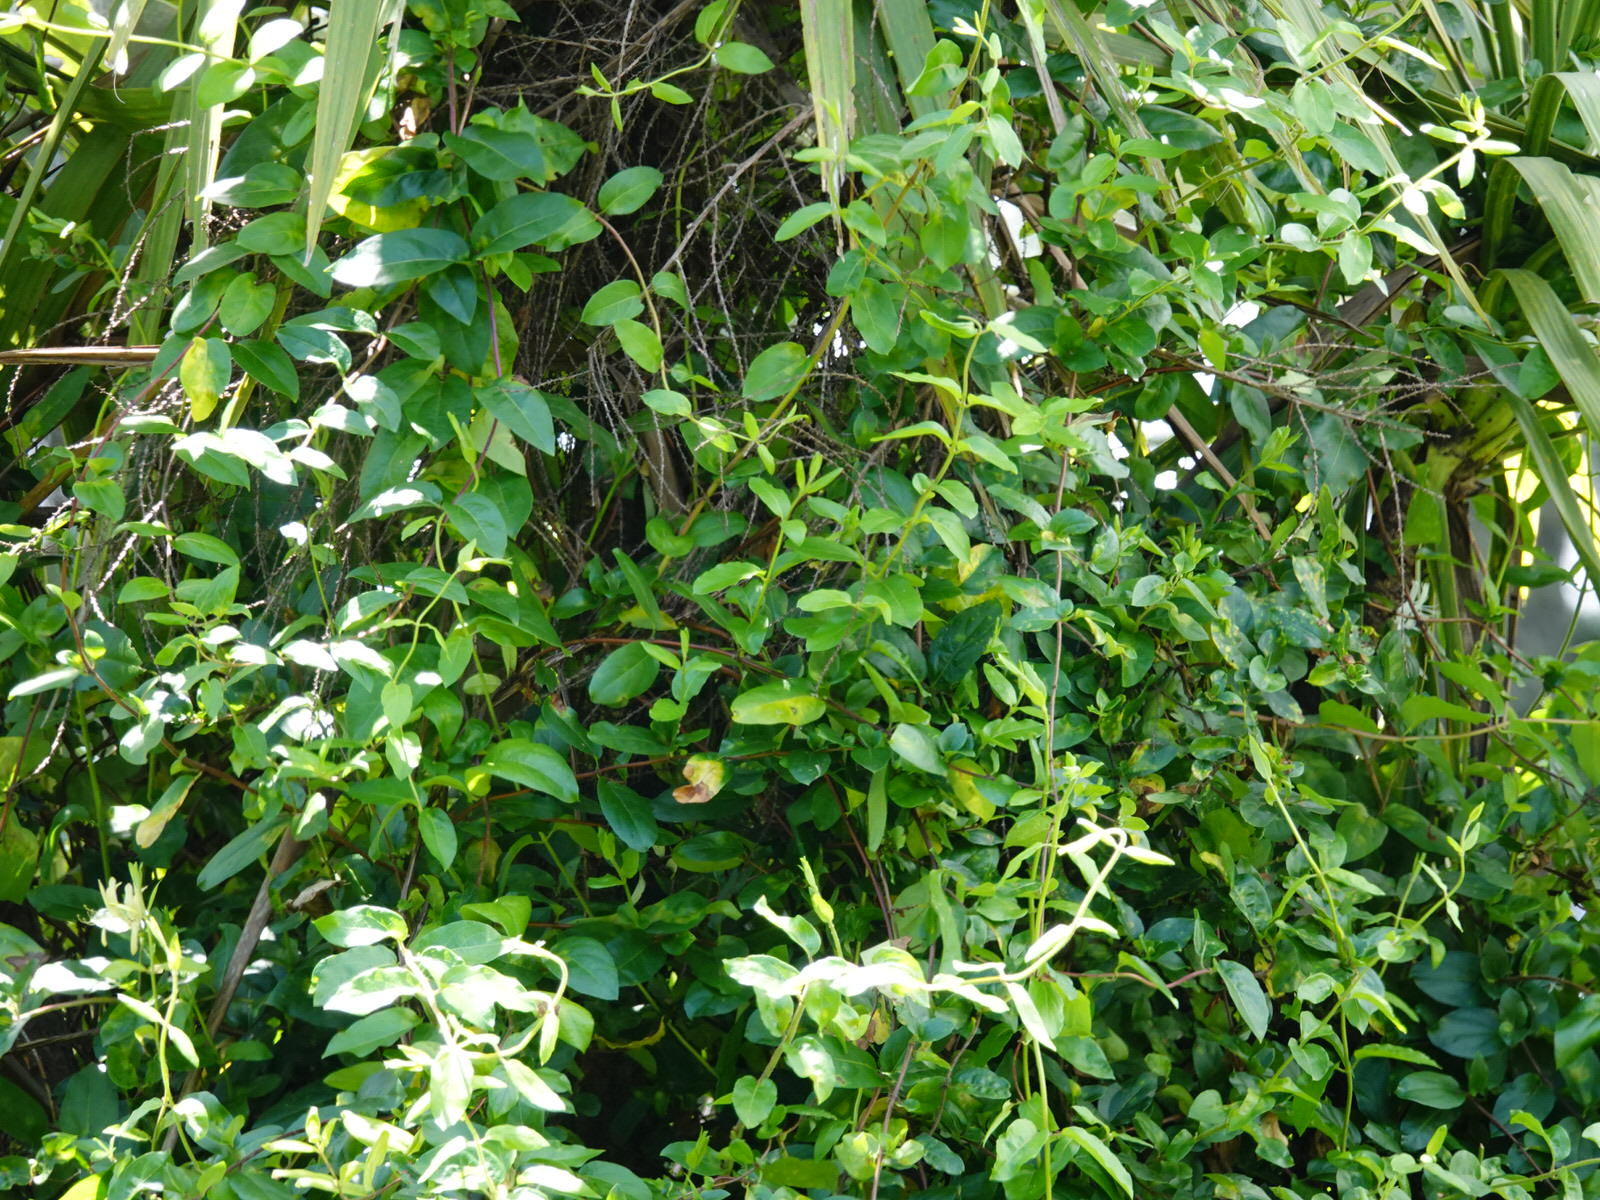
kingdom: Plantae
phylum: Tracheophyta
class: Liliopsida
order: Asparagales
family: Asparagaceae
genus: Cordyline
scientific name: Cordyline australis
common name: Cabbage-palm
